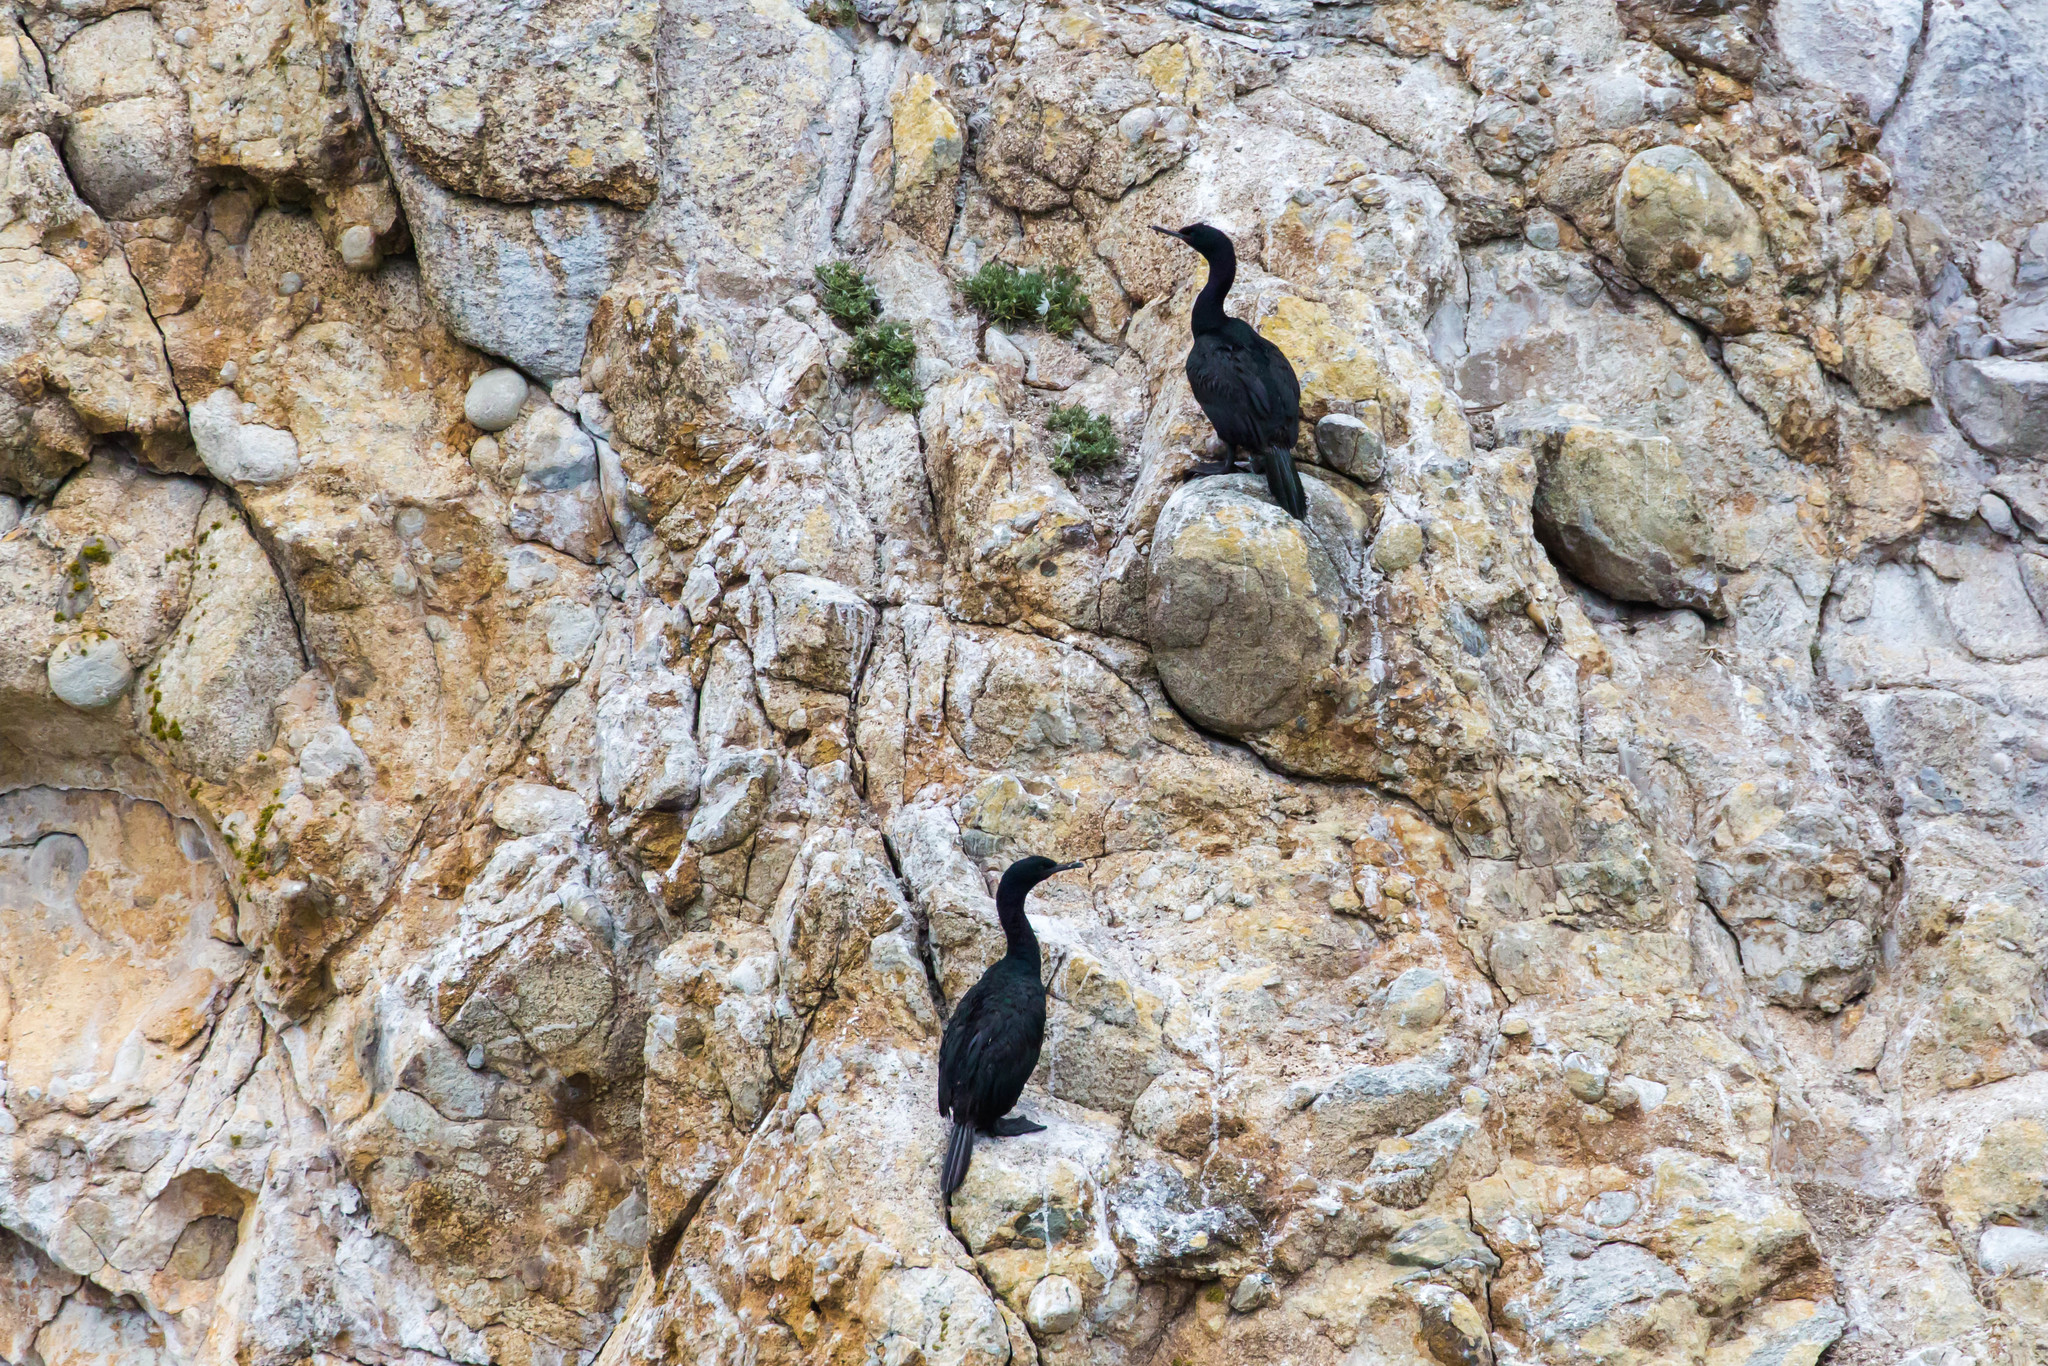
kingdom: Animalia
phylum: Chordata
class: Aves
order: Suliformes
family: Phalacrocoracidae
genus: Phalacrocorax
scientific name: Phalacrocorax pelagicus
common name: Pelagic cormorant
